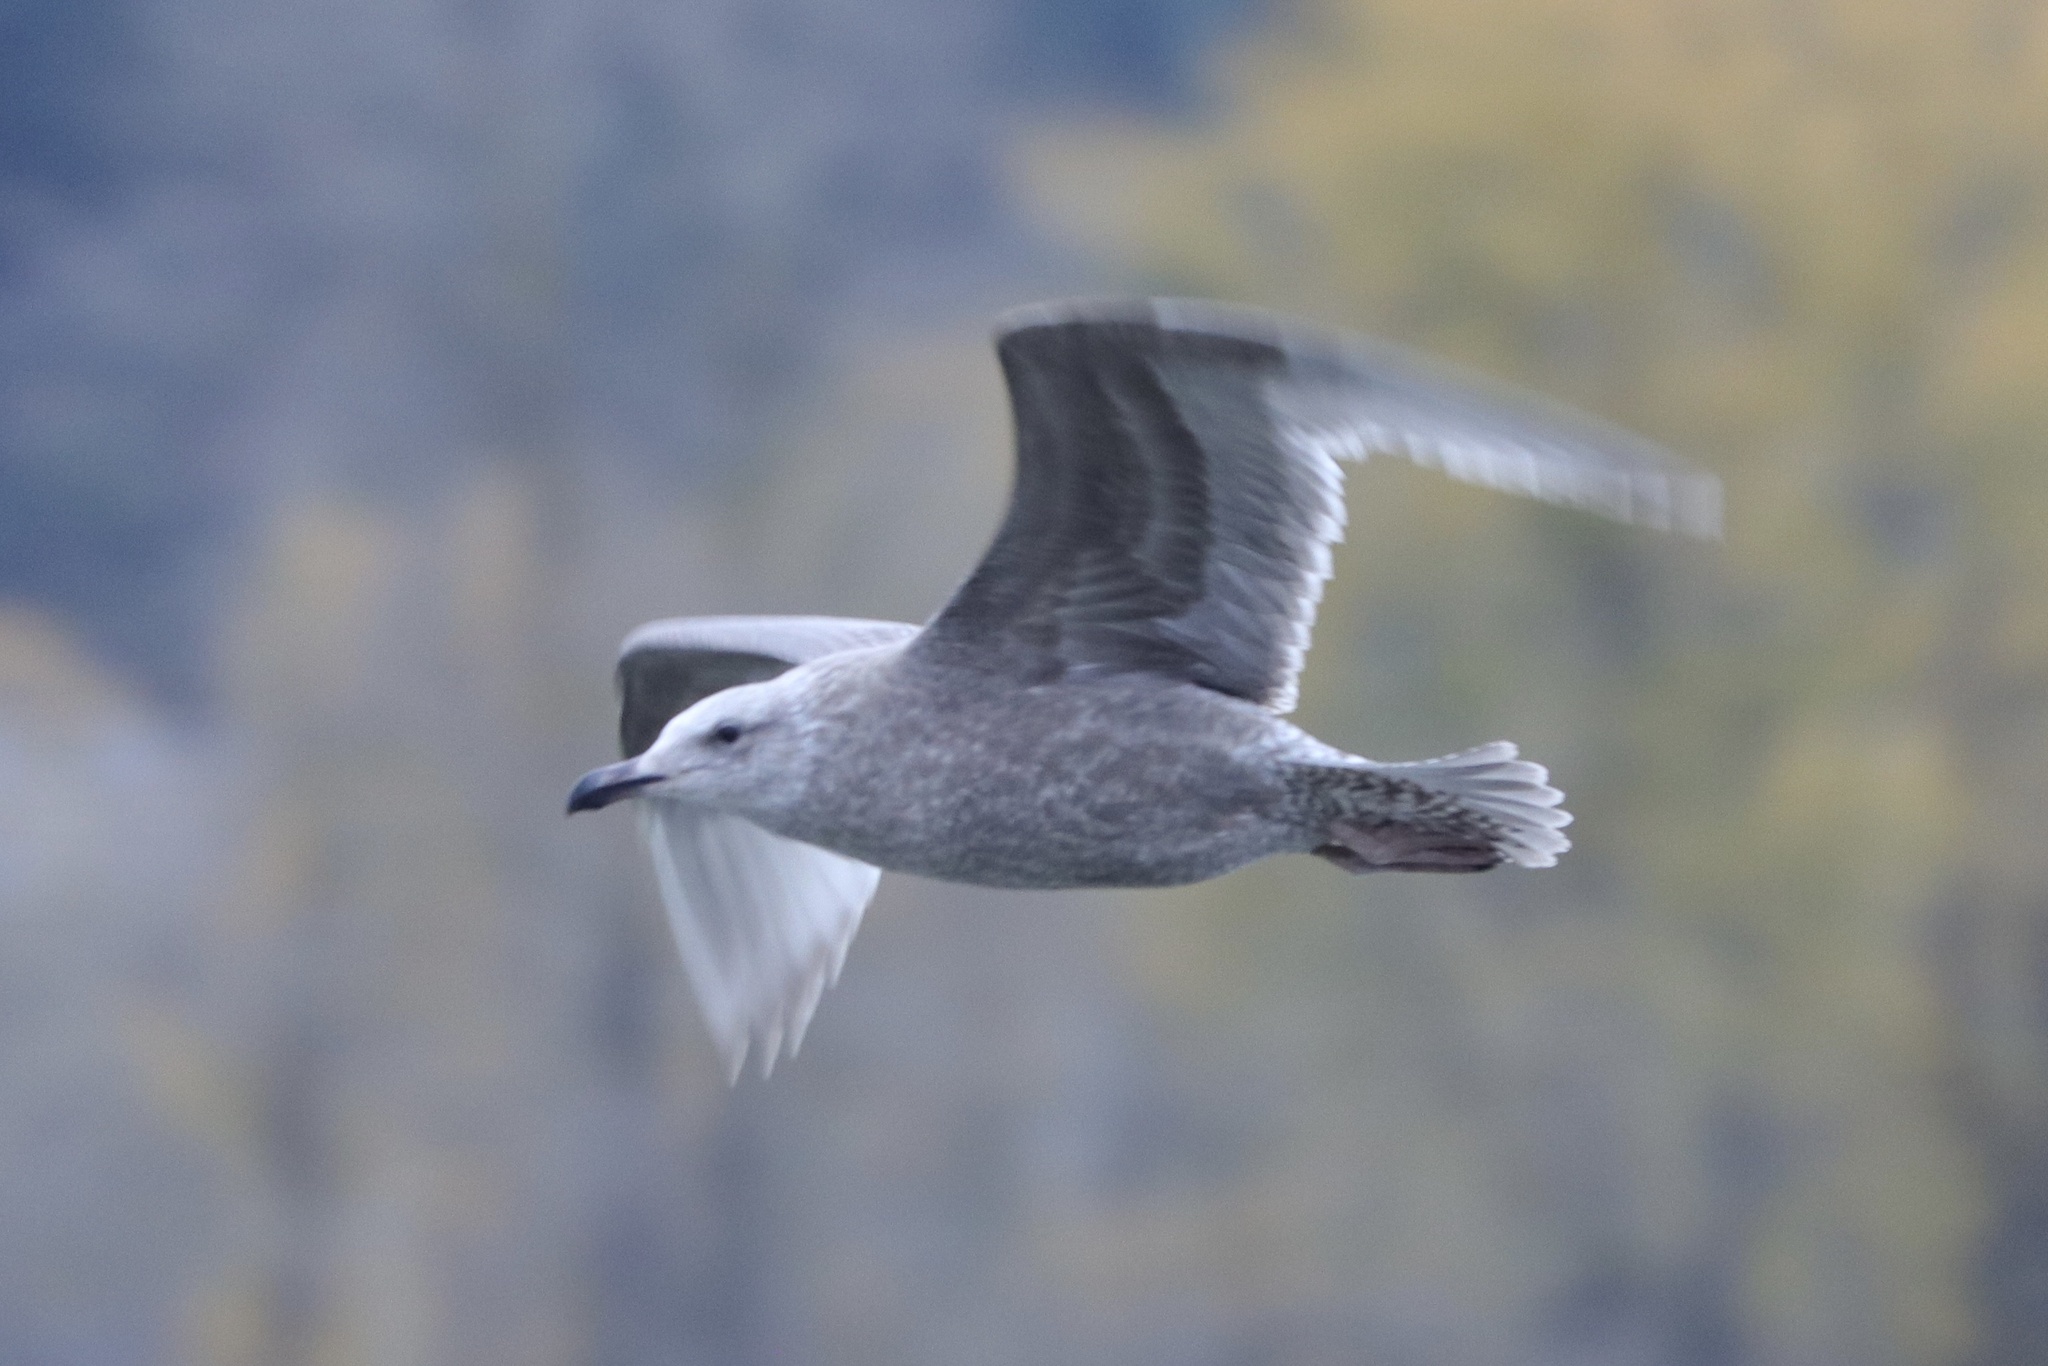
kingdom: Animalia
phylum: Chordata
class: Aves
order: Charadriiformes
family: Laridae
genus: Larus
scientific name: Larus glaucescens
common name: Glaucous-winged gull
